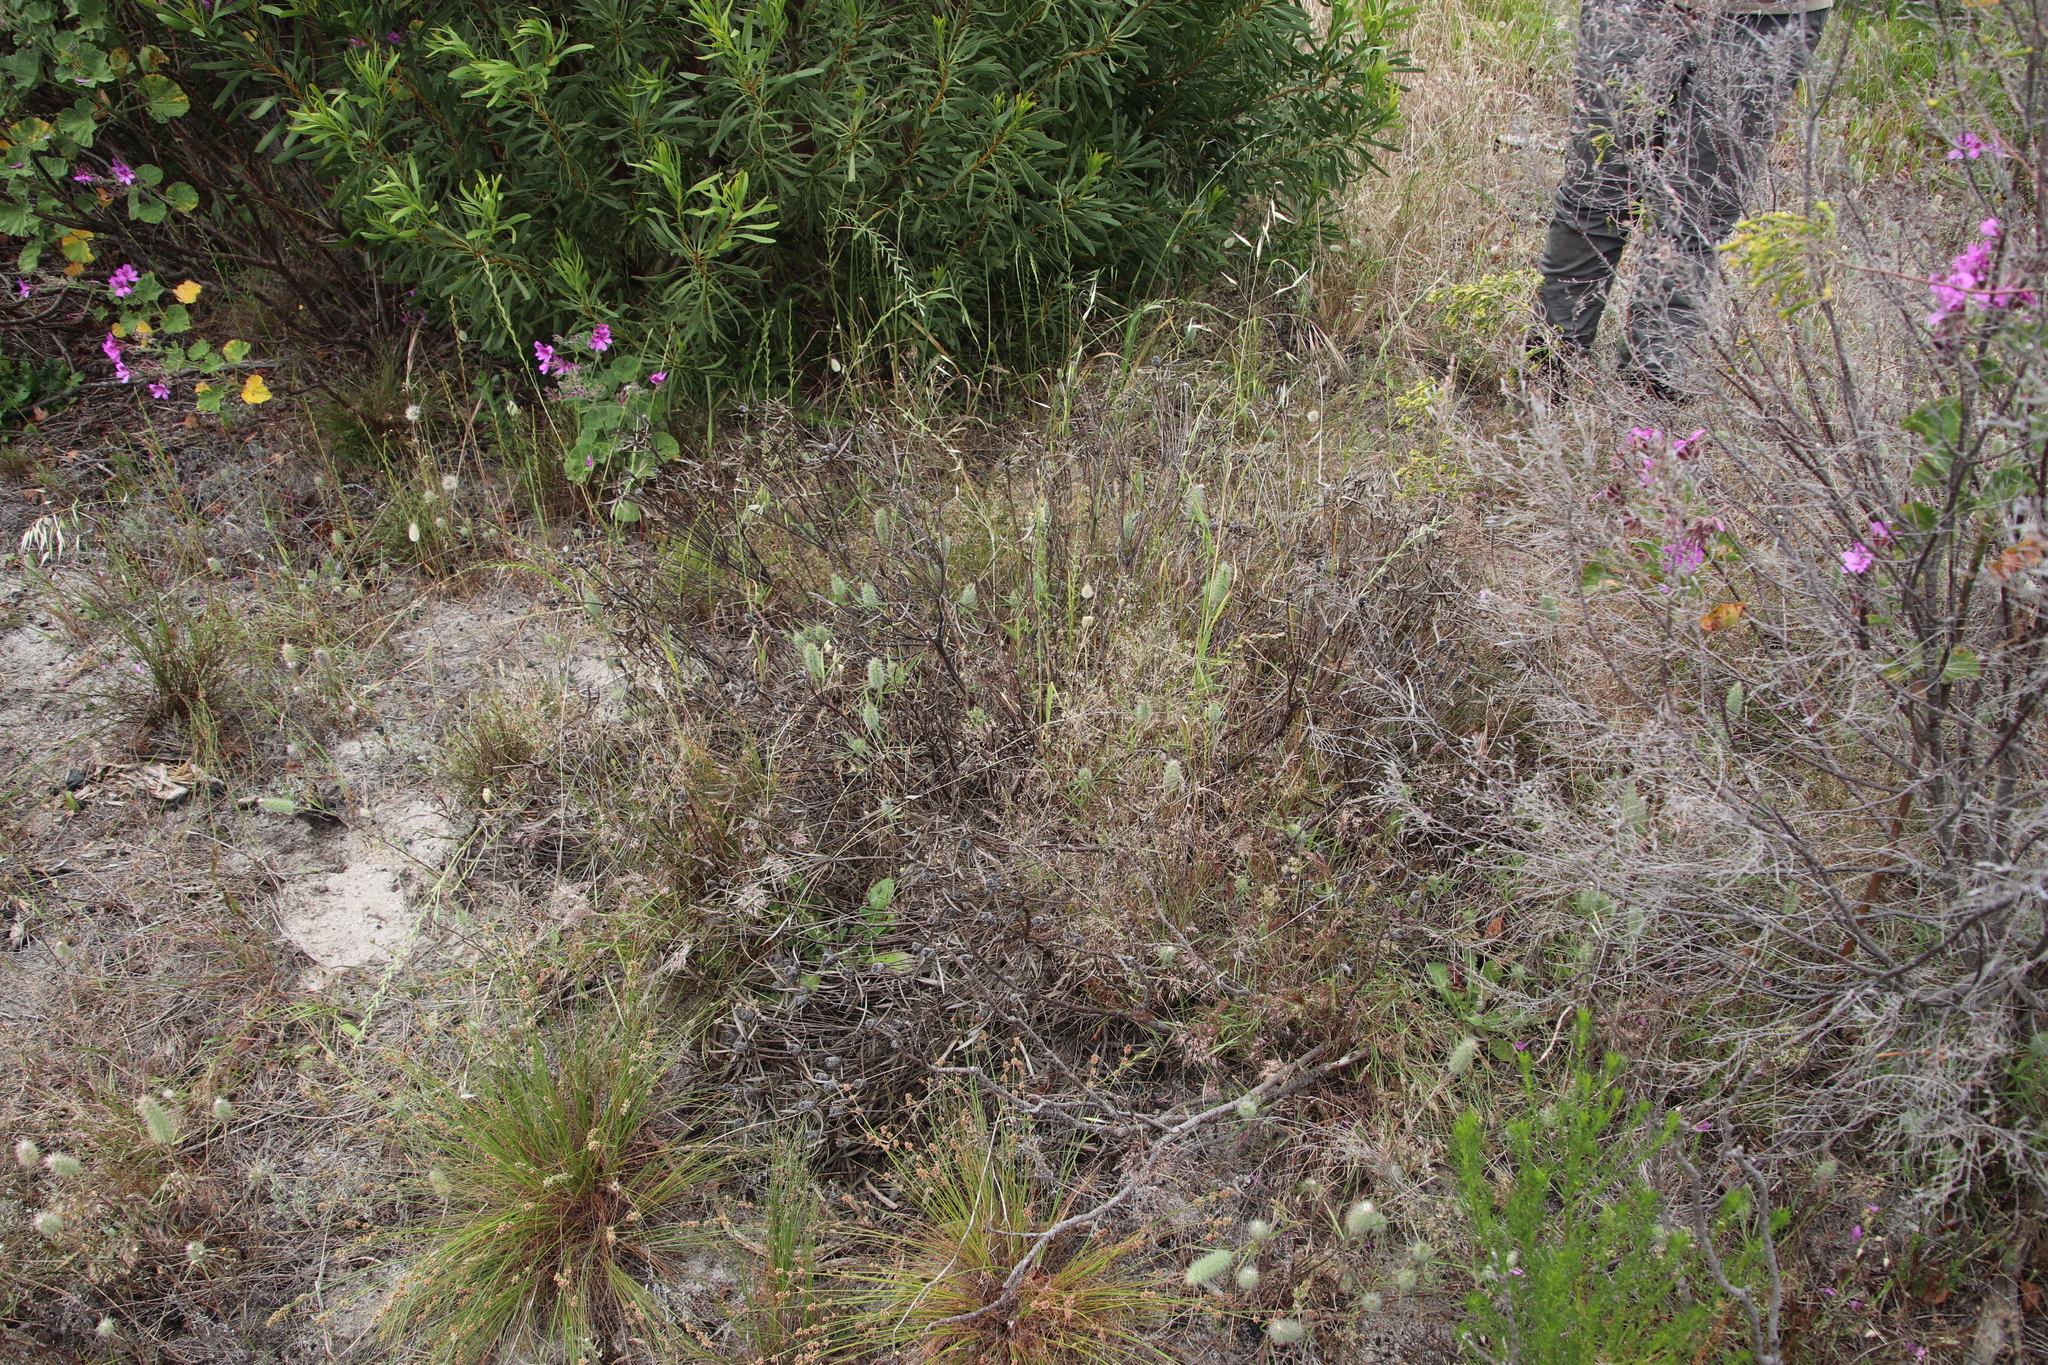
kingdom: Plantae
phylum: Tracheophyta
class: Magnoliopsida
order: Proteales
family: Proteaceae
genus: Leucadendron
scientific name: Leucadendron salignum
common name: Common sunshine conebush
